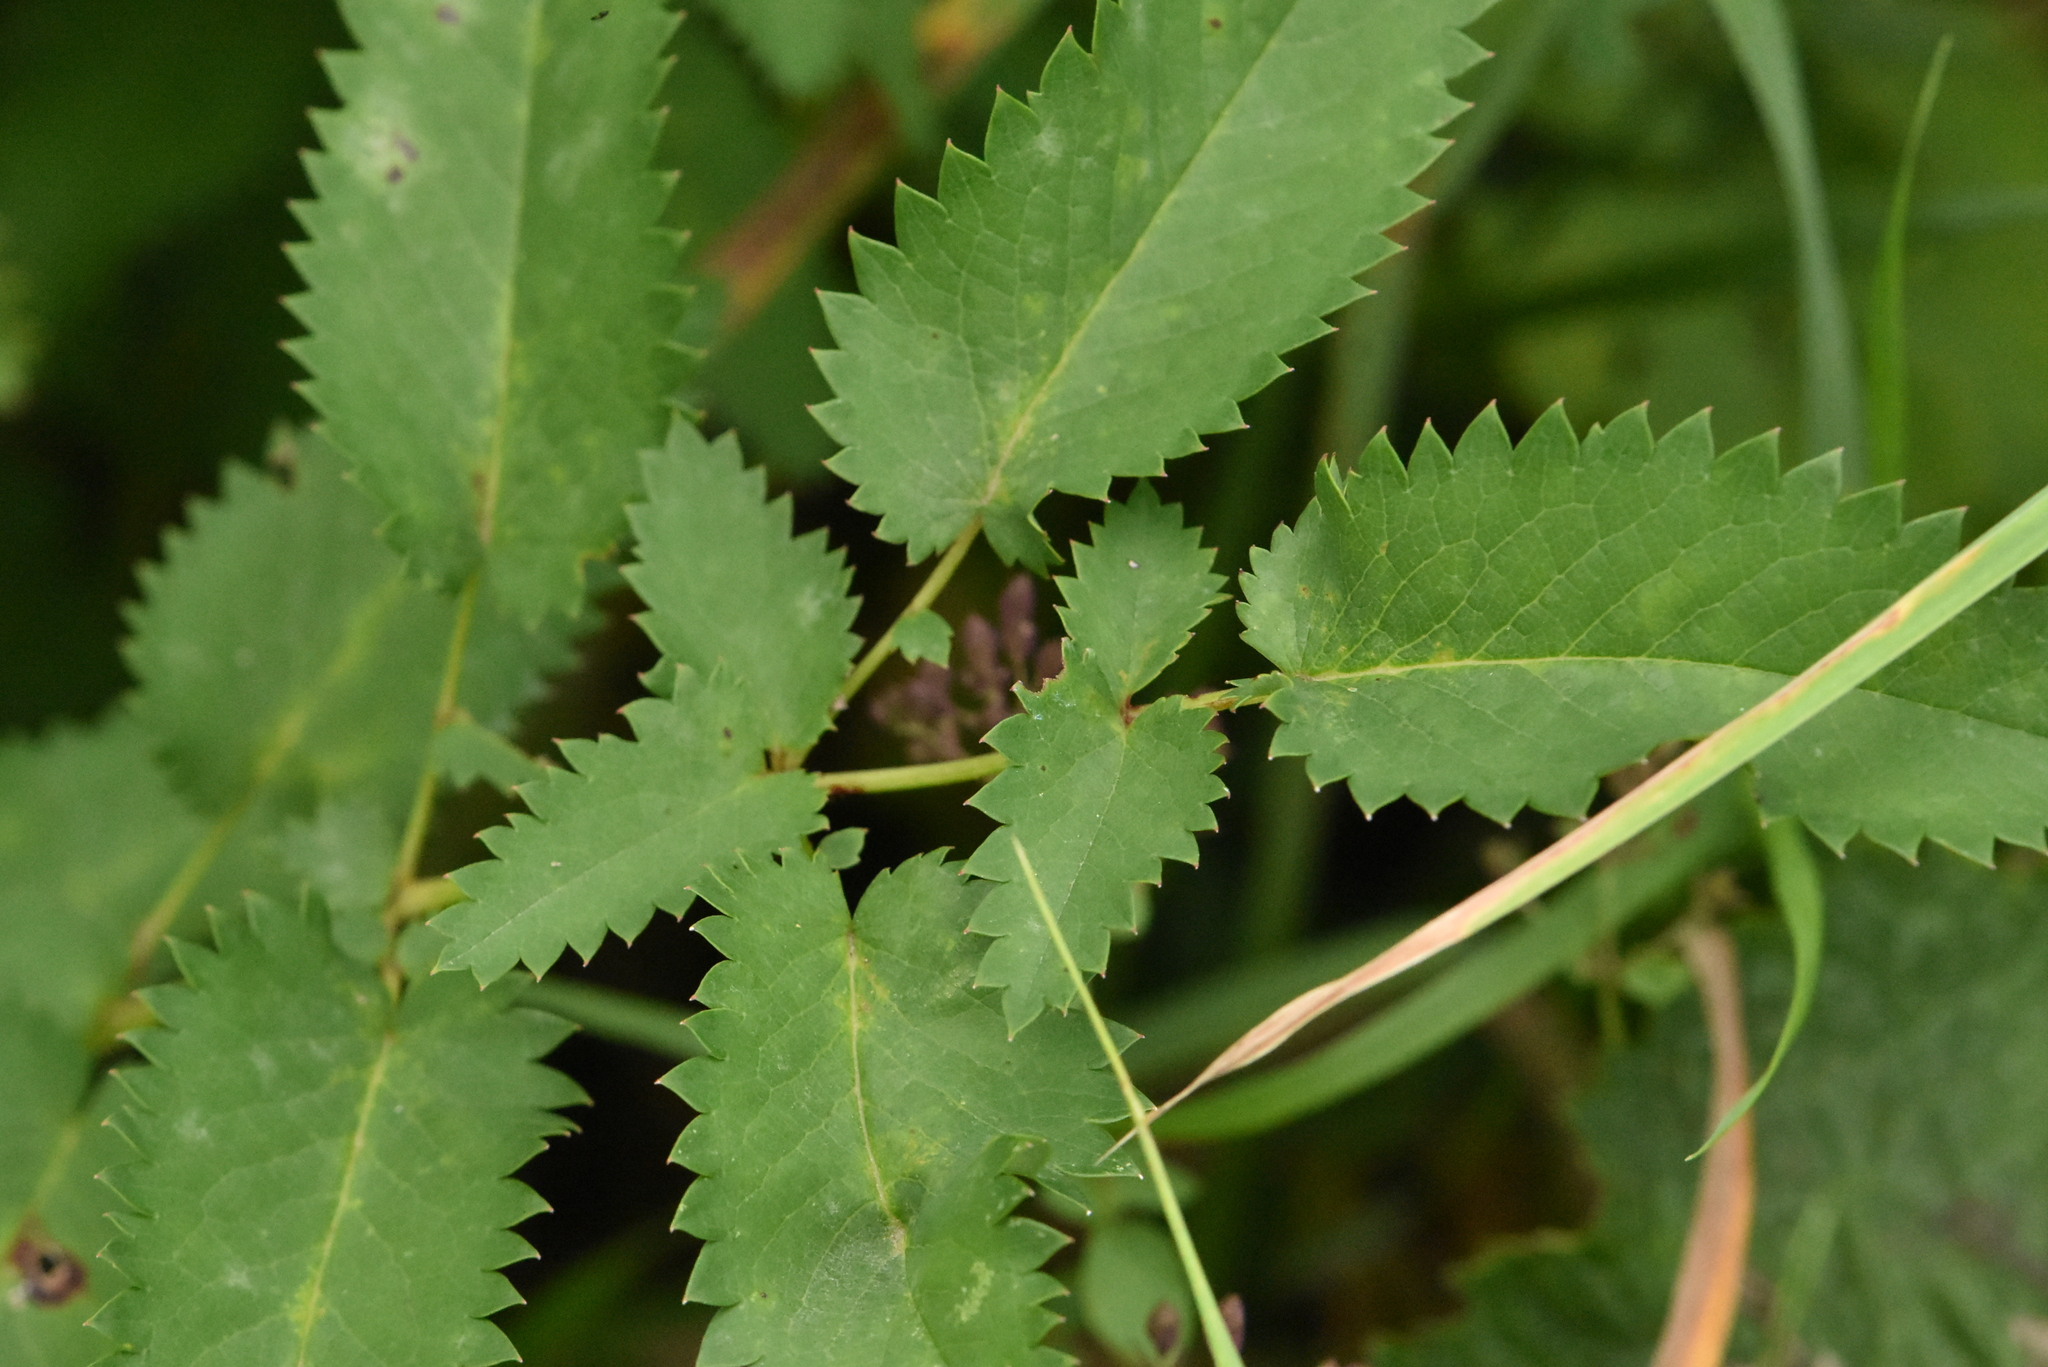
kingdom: Plantae
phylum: Tracheophyta
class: Magnoliopsida
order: Rosales
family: Rosaceae
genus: Sanguisorba
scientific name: Sanguisorba officinalis
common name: Great burnet
